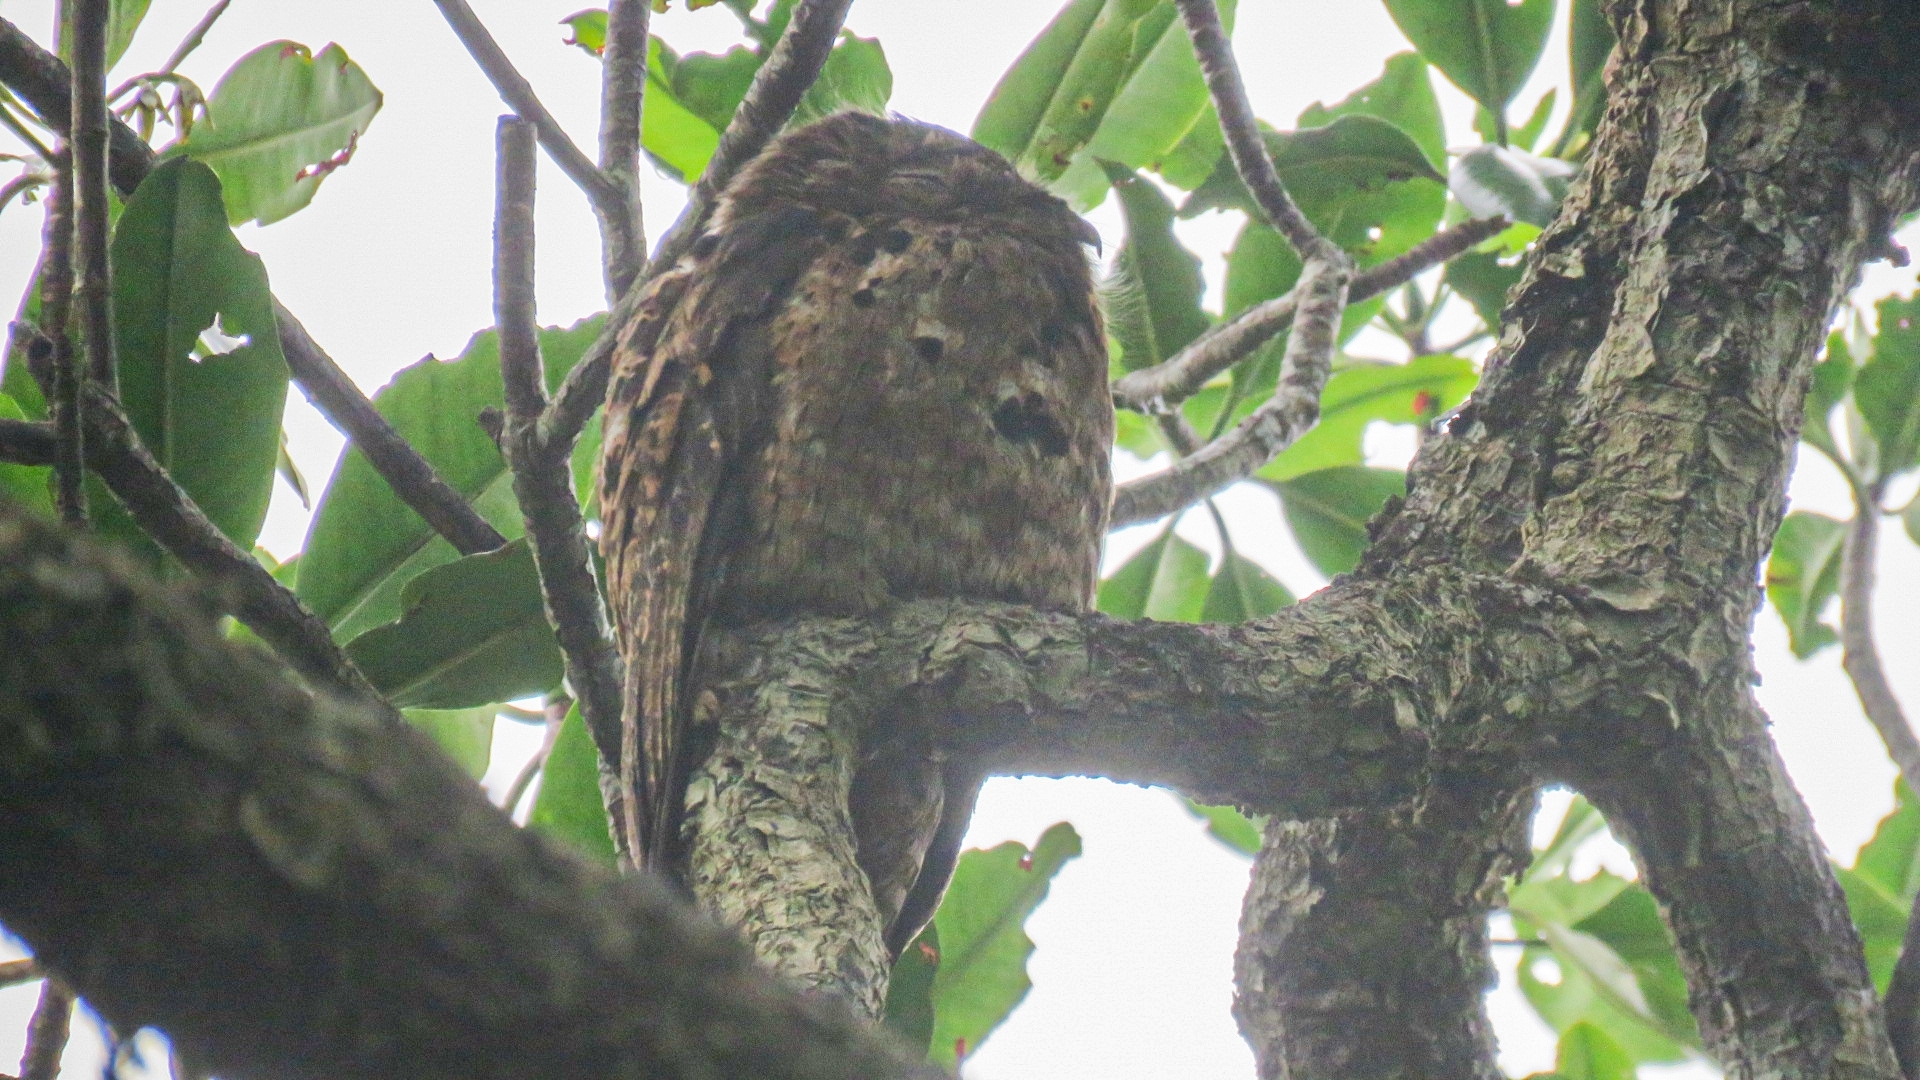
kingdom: Animalia
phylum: Chordata
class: Aves
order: Nyctibiiformes
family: Nyctibiidae
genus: Nyctibius
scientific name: Nyctibius griseus
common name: Common potoo
